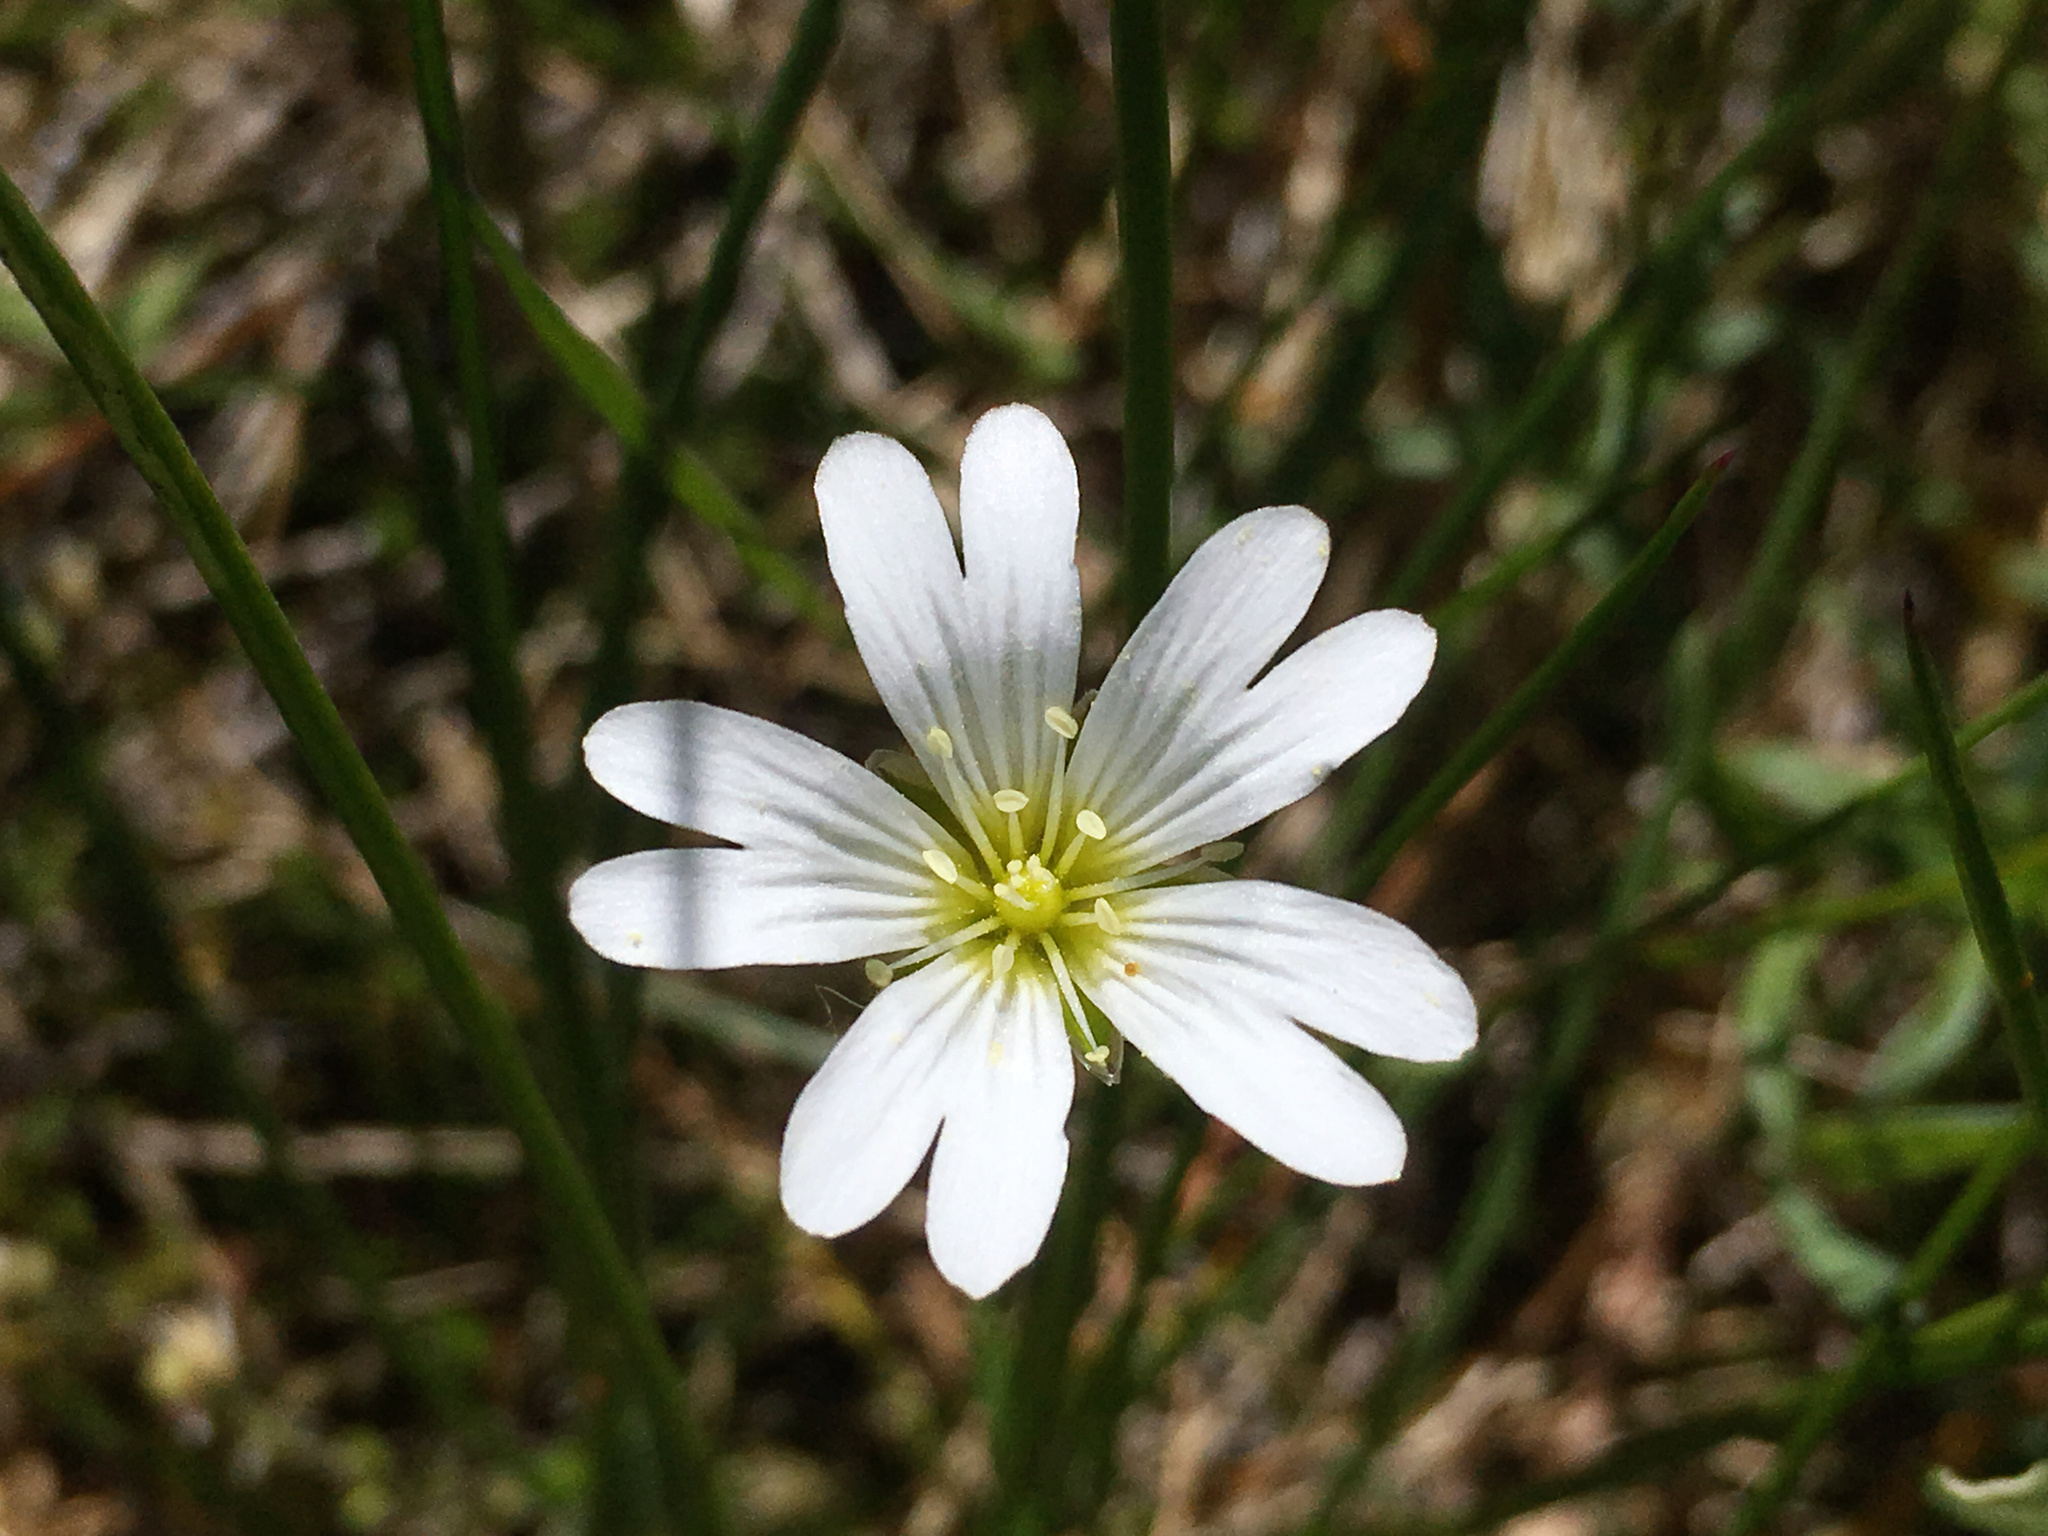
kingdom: Plantae
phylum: Tracheophyta
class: Magnoliopsida
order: Caryophyllales
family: Caryophyllaceae
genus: Cerastium
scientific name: Cerastium arvense
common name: Field mouse-ear
